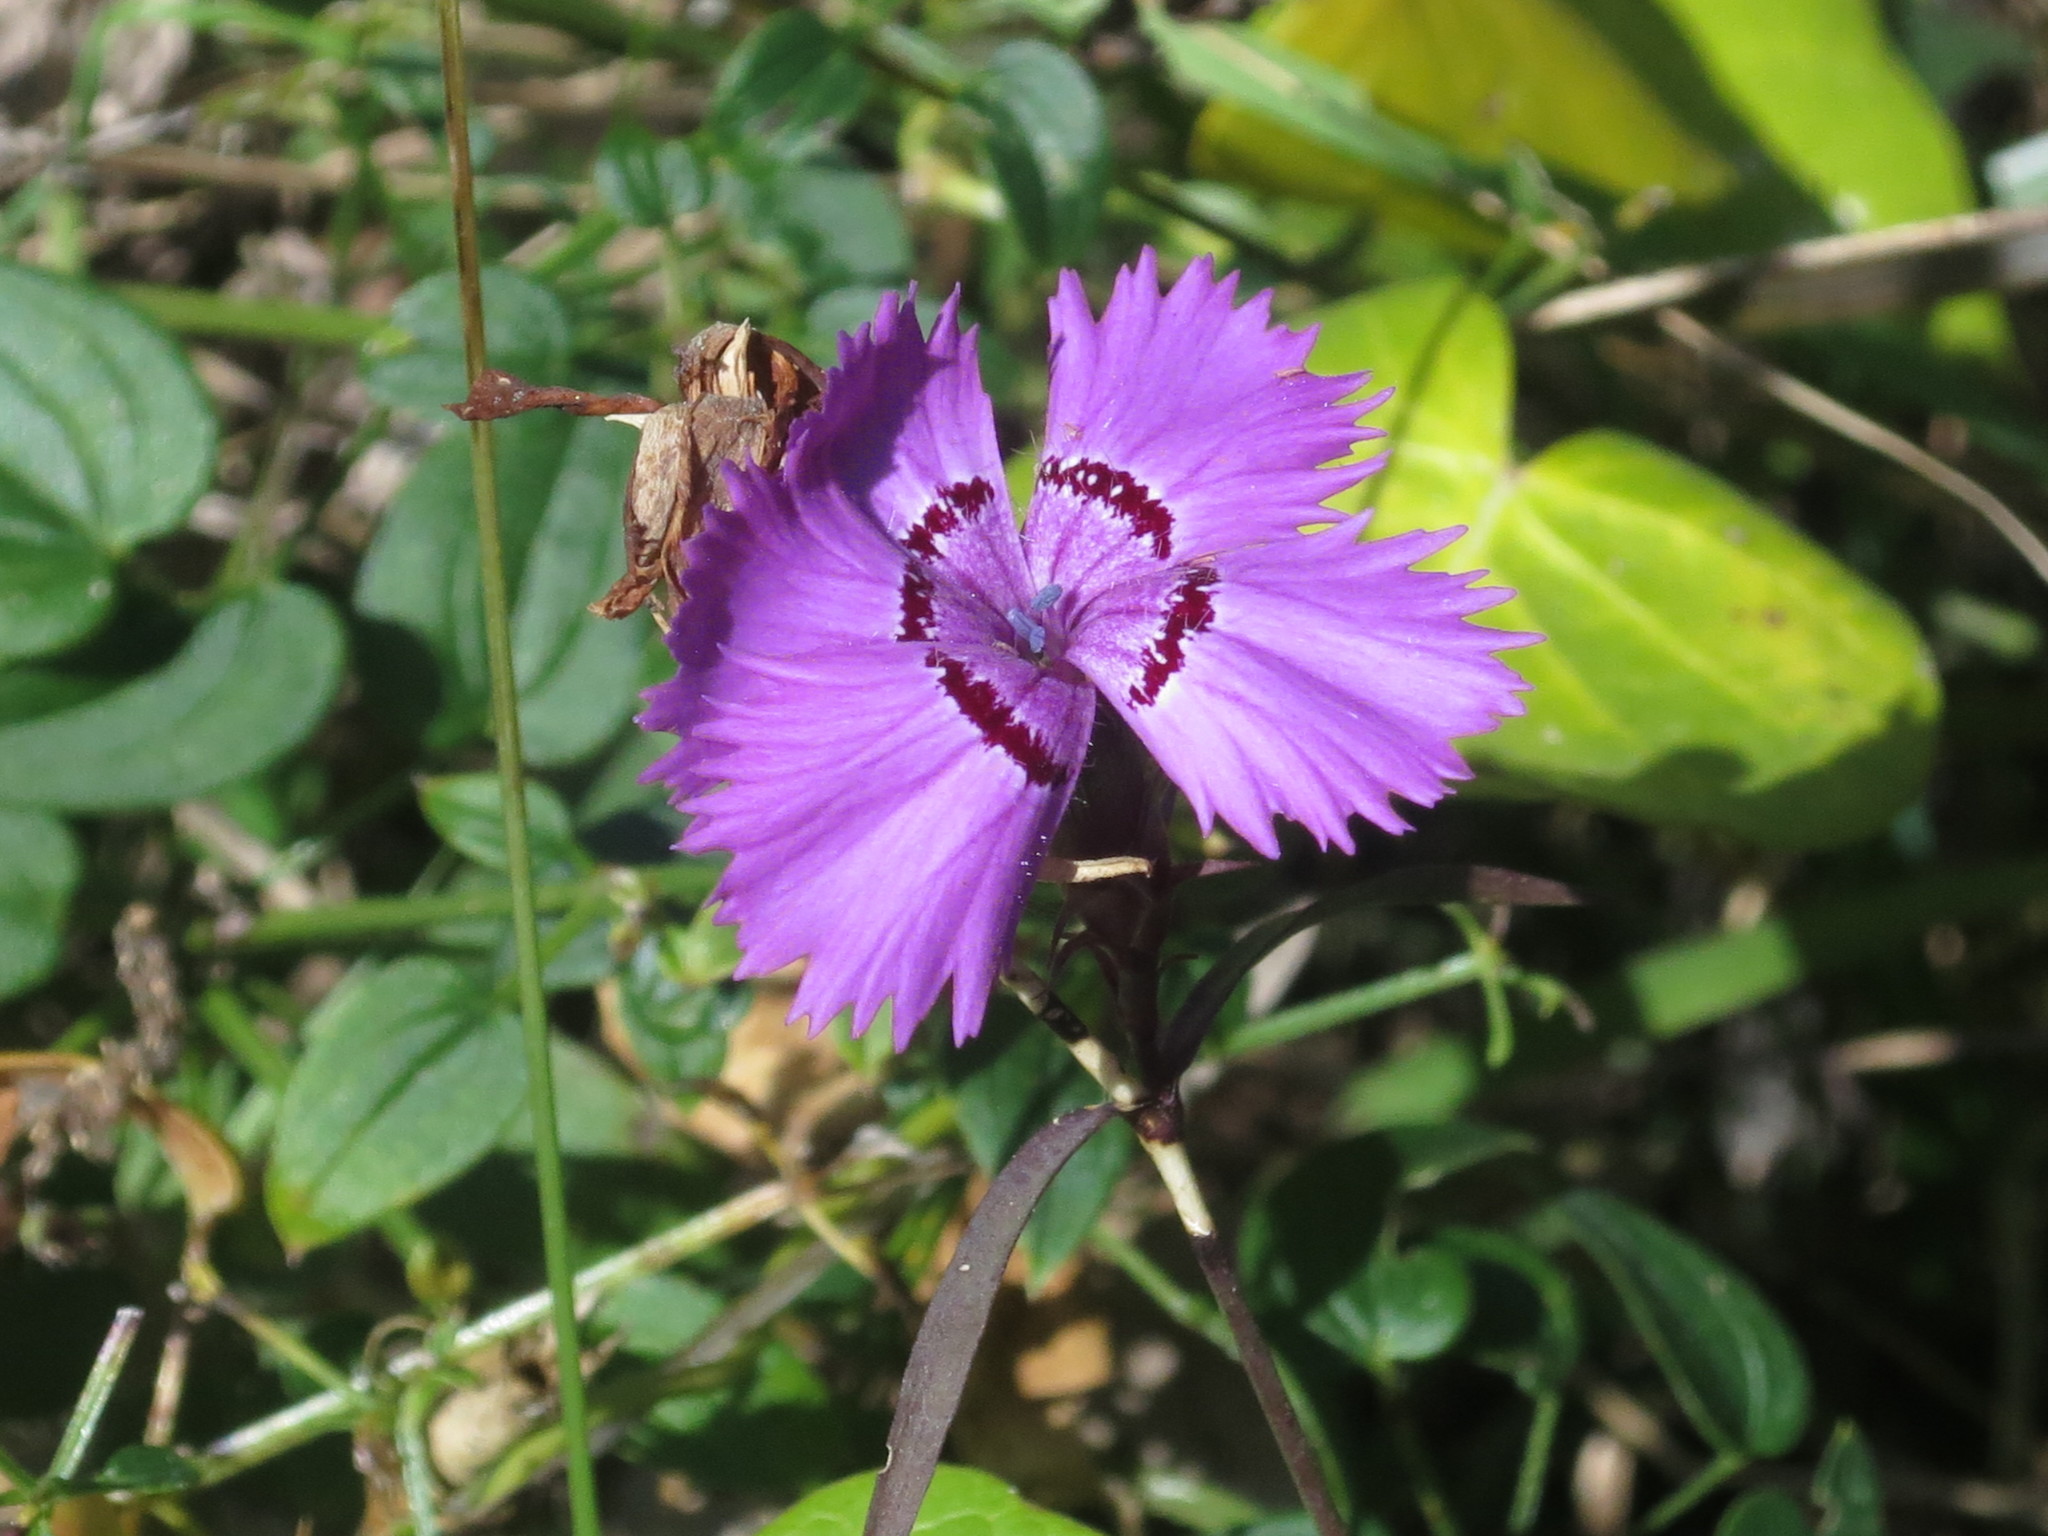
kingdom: Plantae
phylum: Tracheophyta
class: Magnoliopsida
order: Caryophyllales
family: Caryophyllaceae
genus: Dianthus
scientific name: Dianthus chinensis
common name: Rainbow pink
